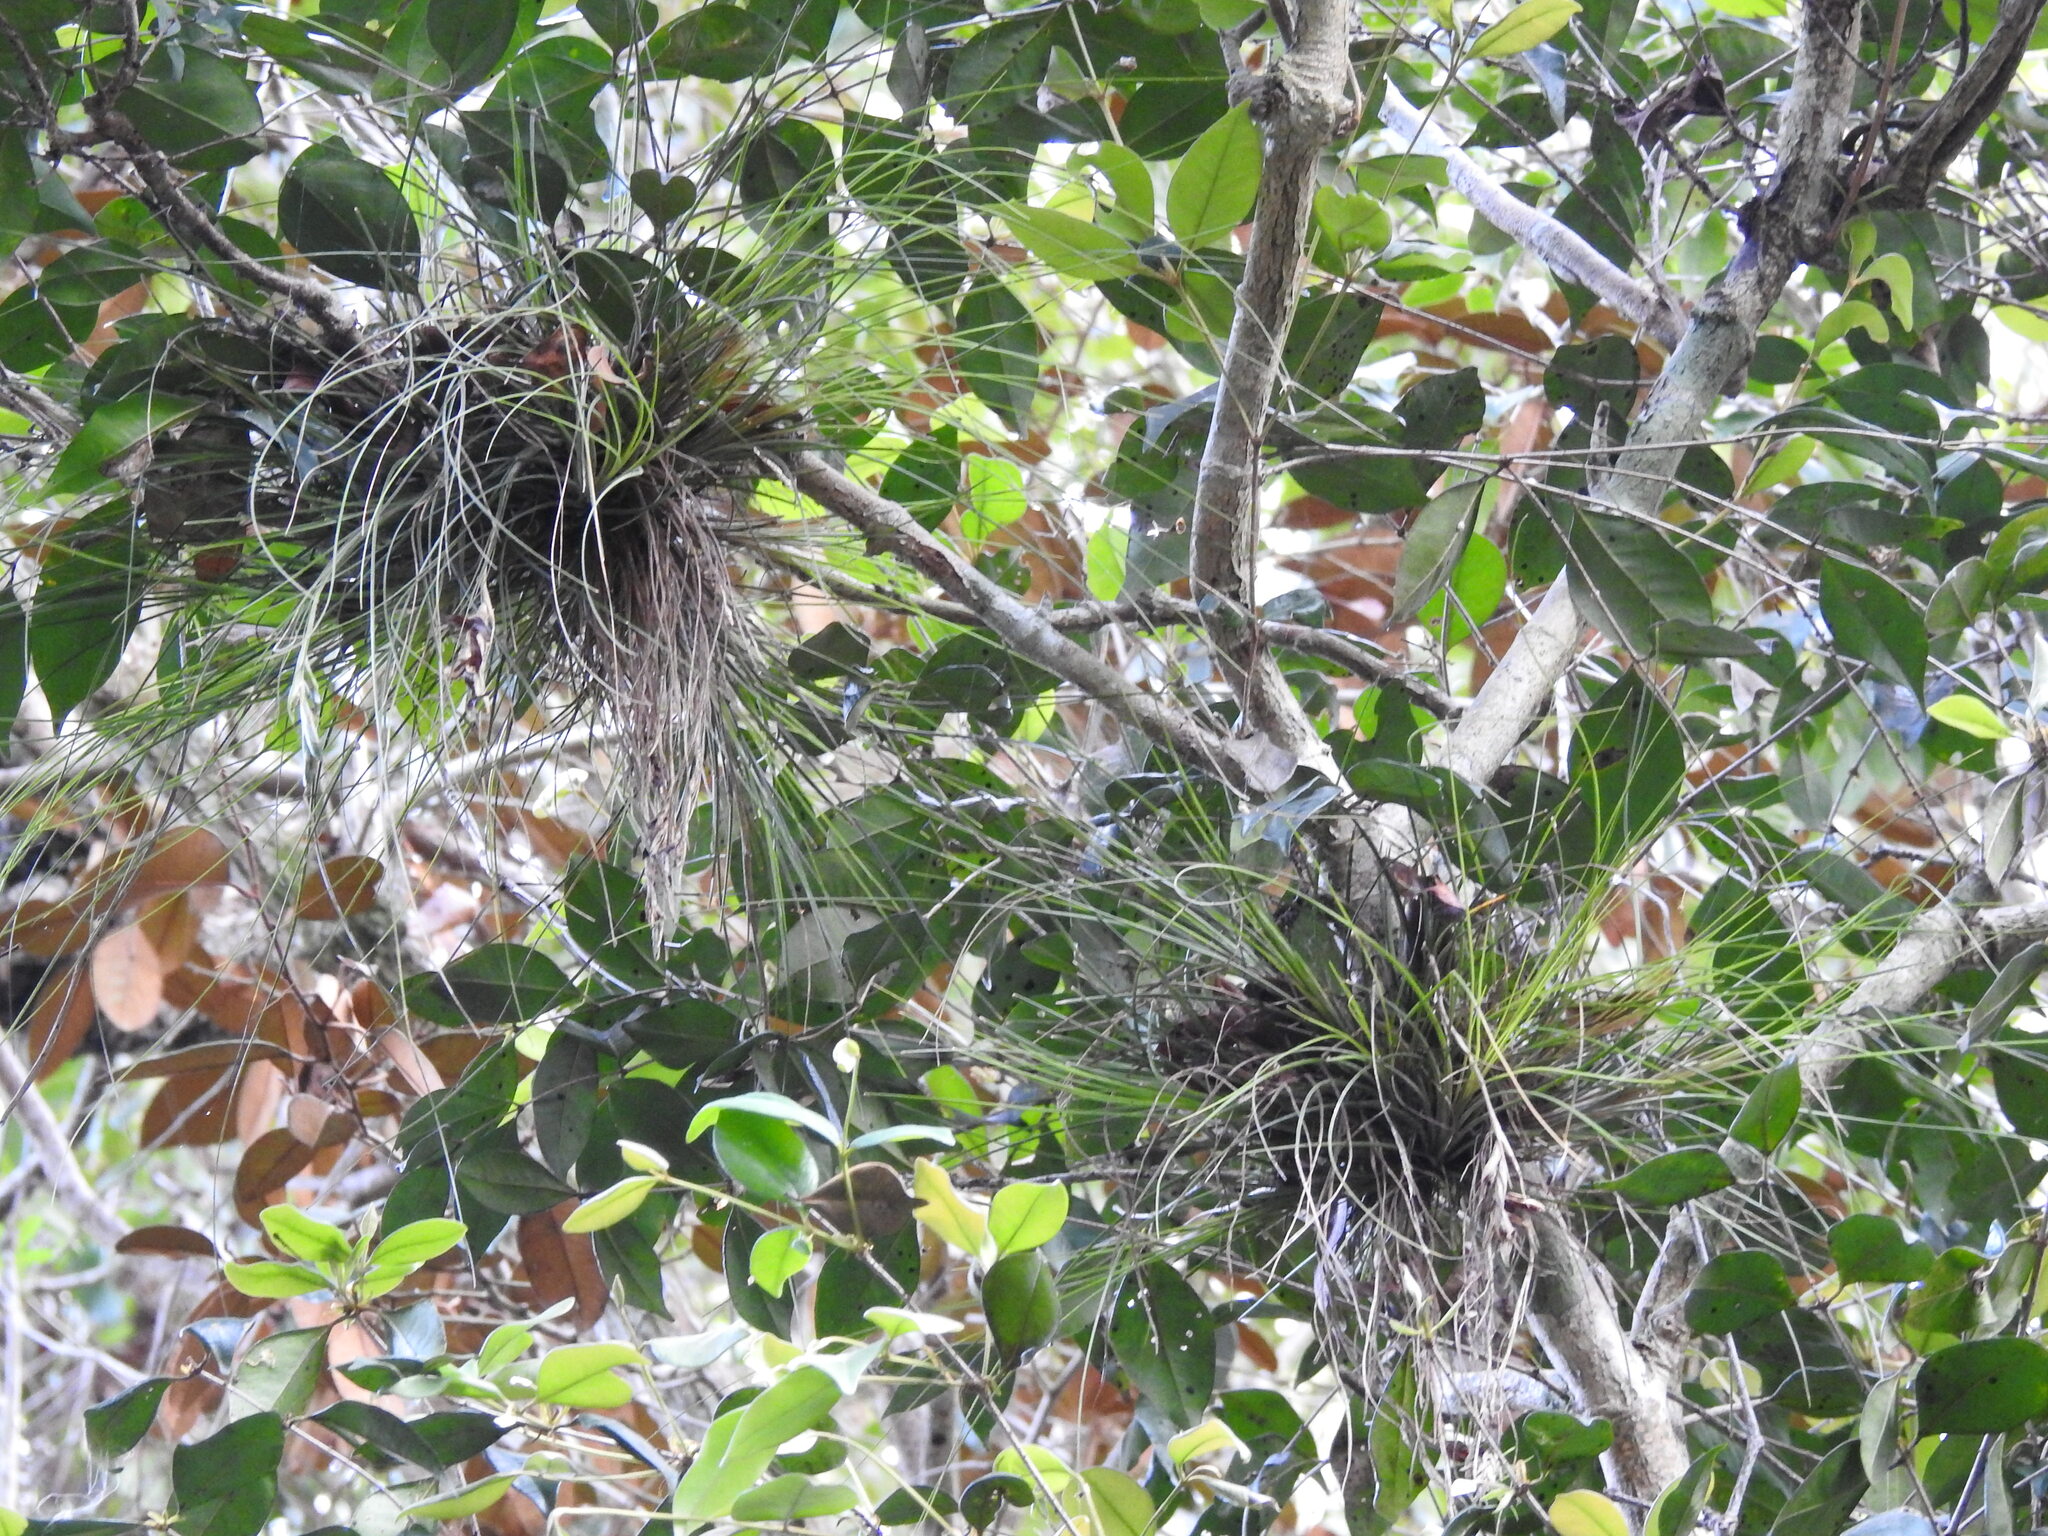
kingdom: Plantae
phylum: Tracheophyta
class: Liliopsida
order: Poales
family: Bromeliaceae
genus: Tillandsia
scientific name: Tillandsia setacea
